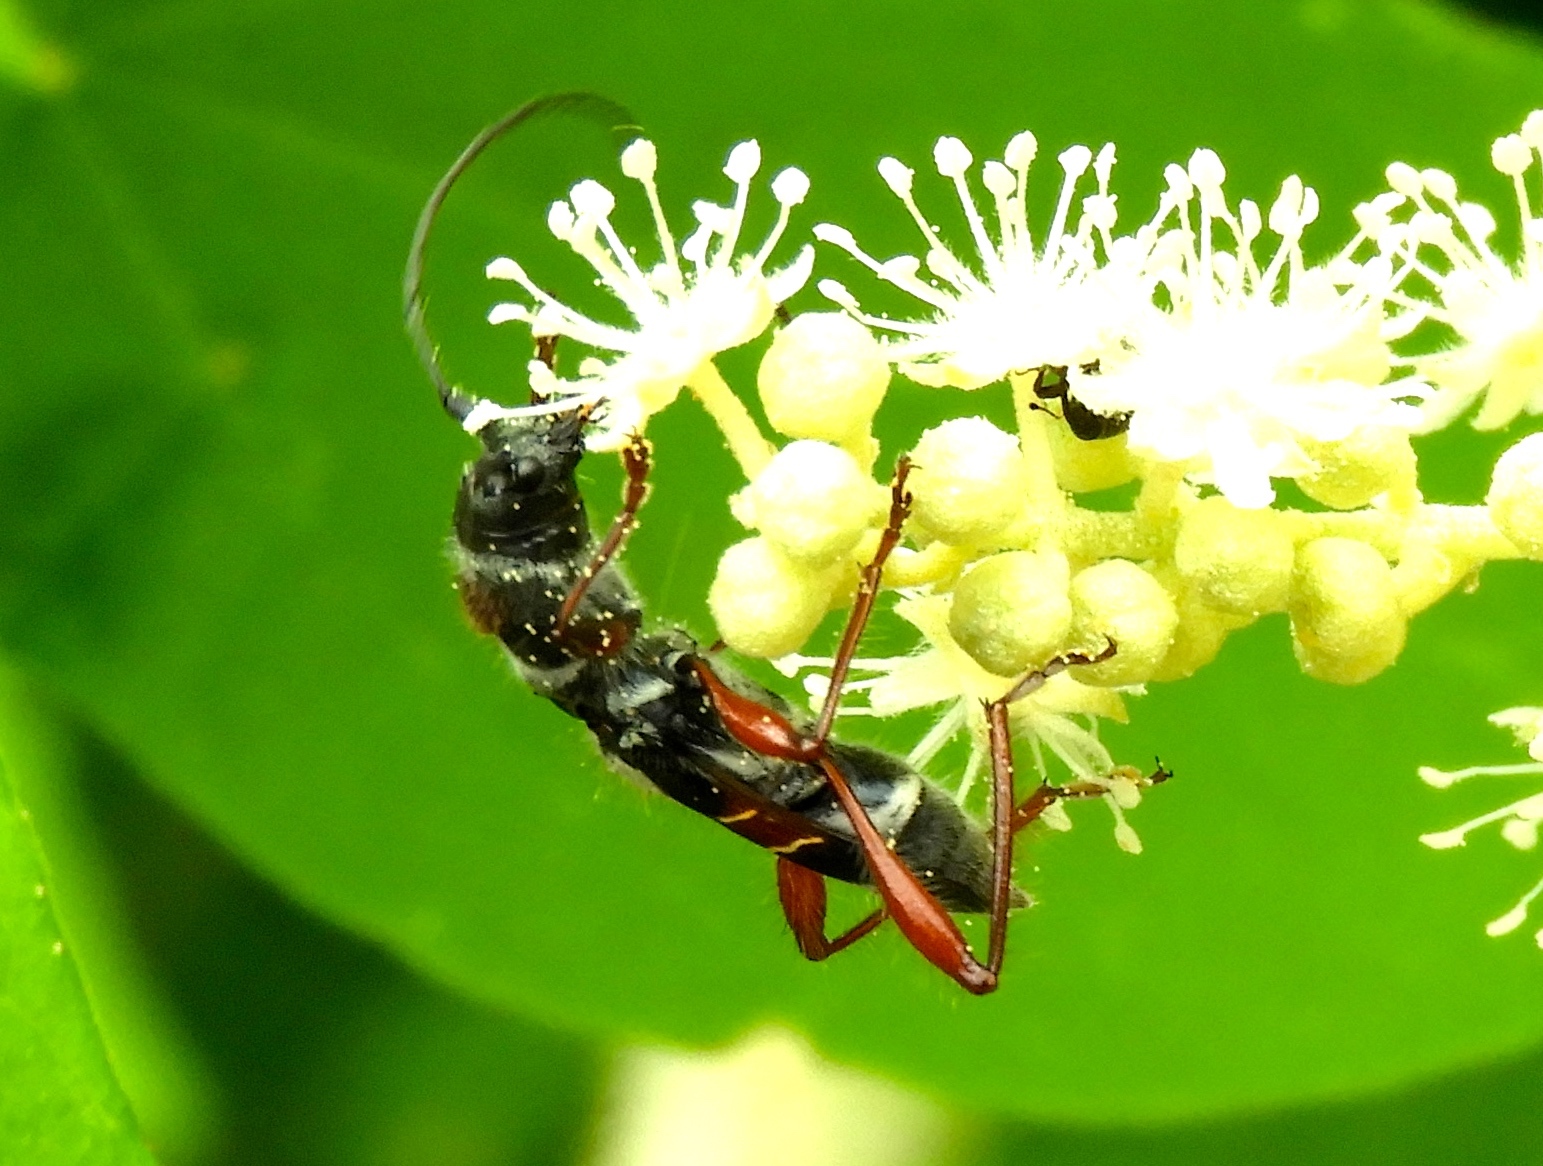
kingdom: Animalia
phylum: Arthropoda
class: Insecta
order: Coleoptera
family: Cerambycidae
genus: Euderces
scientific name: Euderces pulcher
